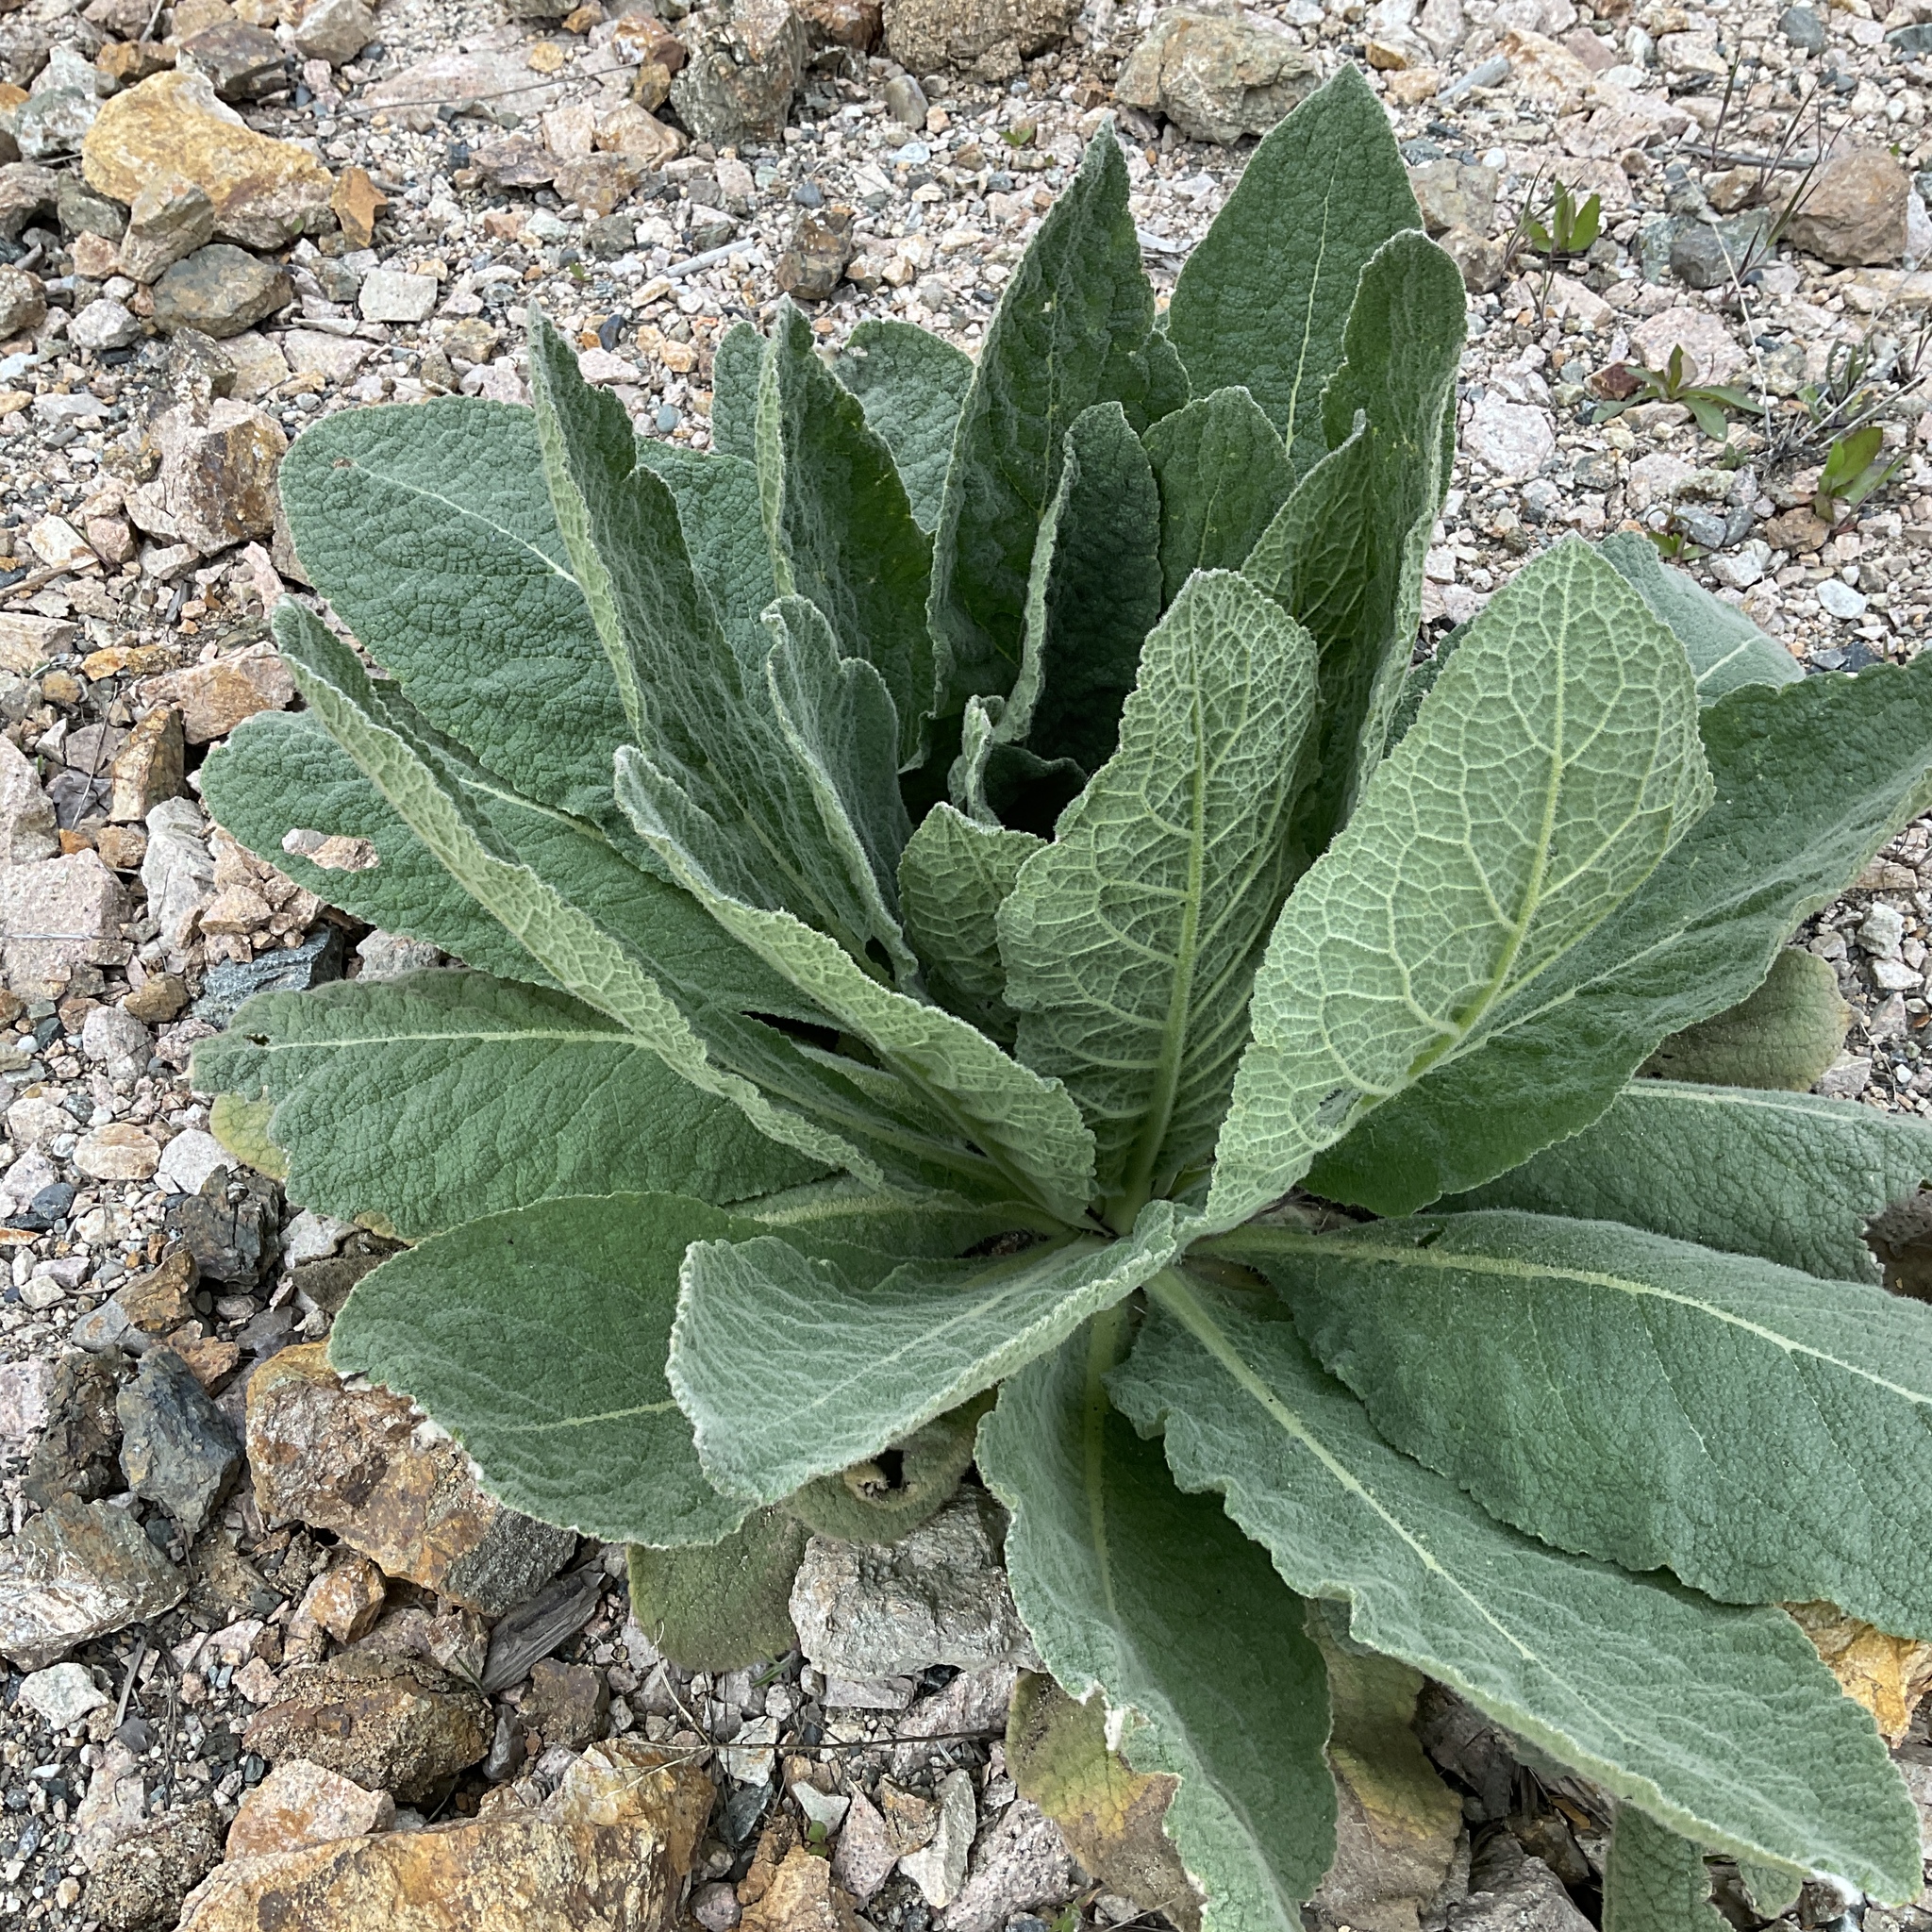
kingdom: Plantae
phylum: Tracheophyta
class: Magnoliopsida
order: Lamiales
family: Scrophulariaceae
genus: Verbascum
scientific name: Verbascum thapsus
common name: Common mullein
